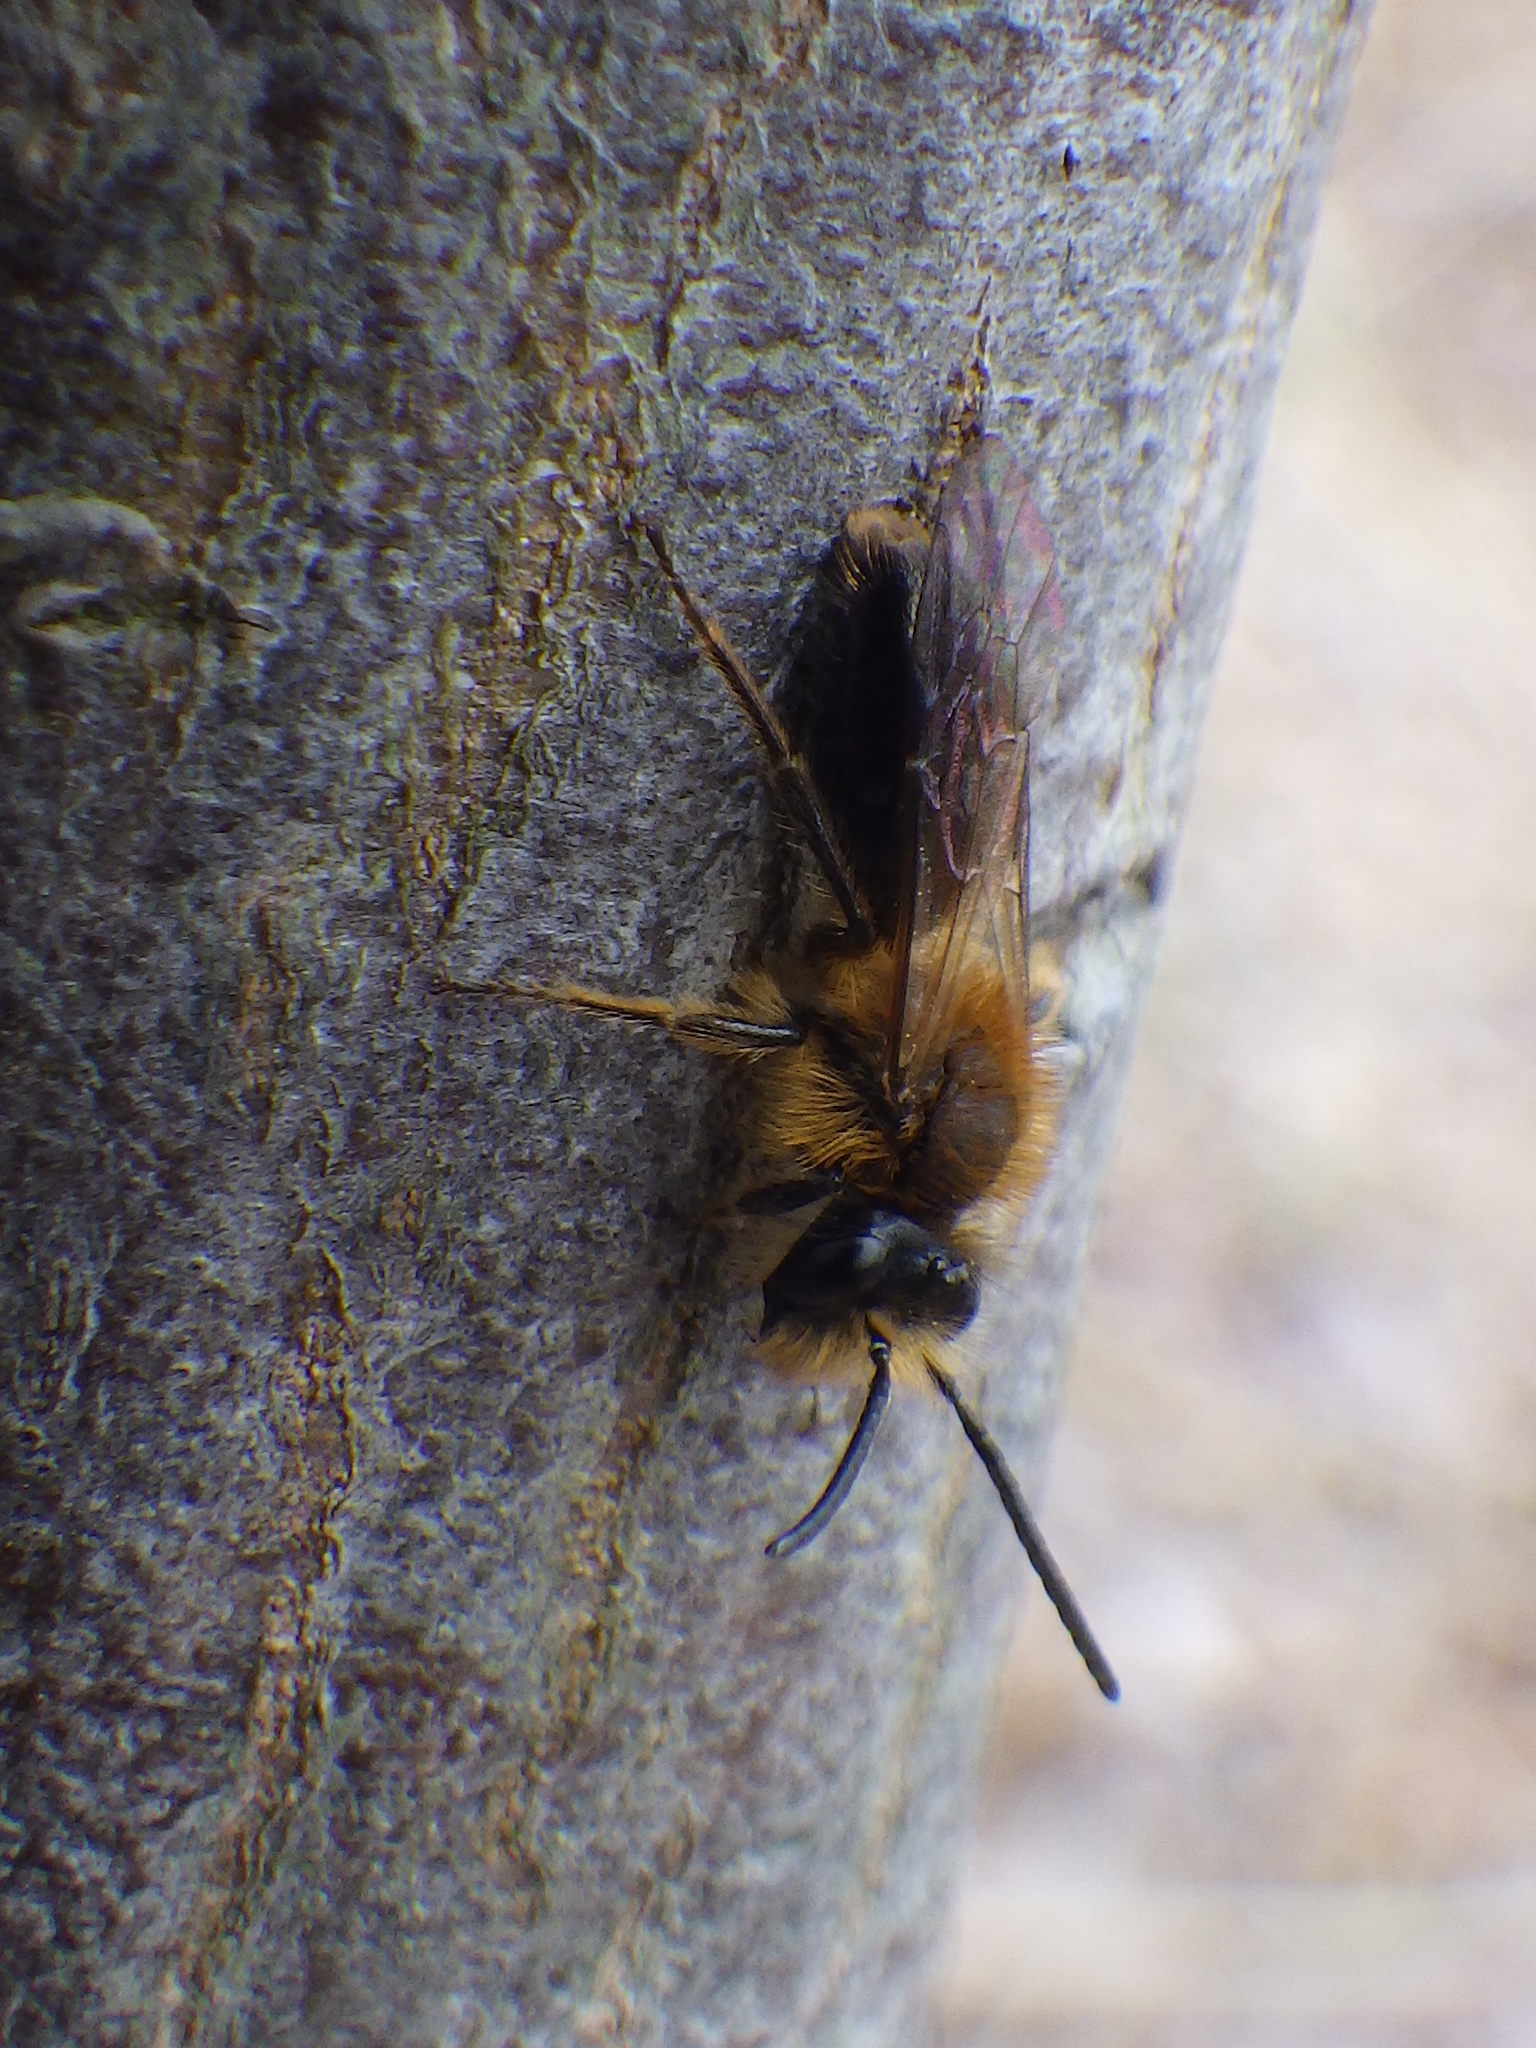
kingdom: Animalia
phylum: Arthropoda
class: Insecta
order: Hymenoptera
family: Andrenidae
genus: Andrena
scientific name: Andrena dunningi
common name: Dunning's miner
